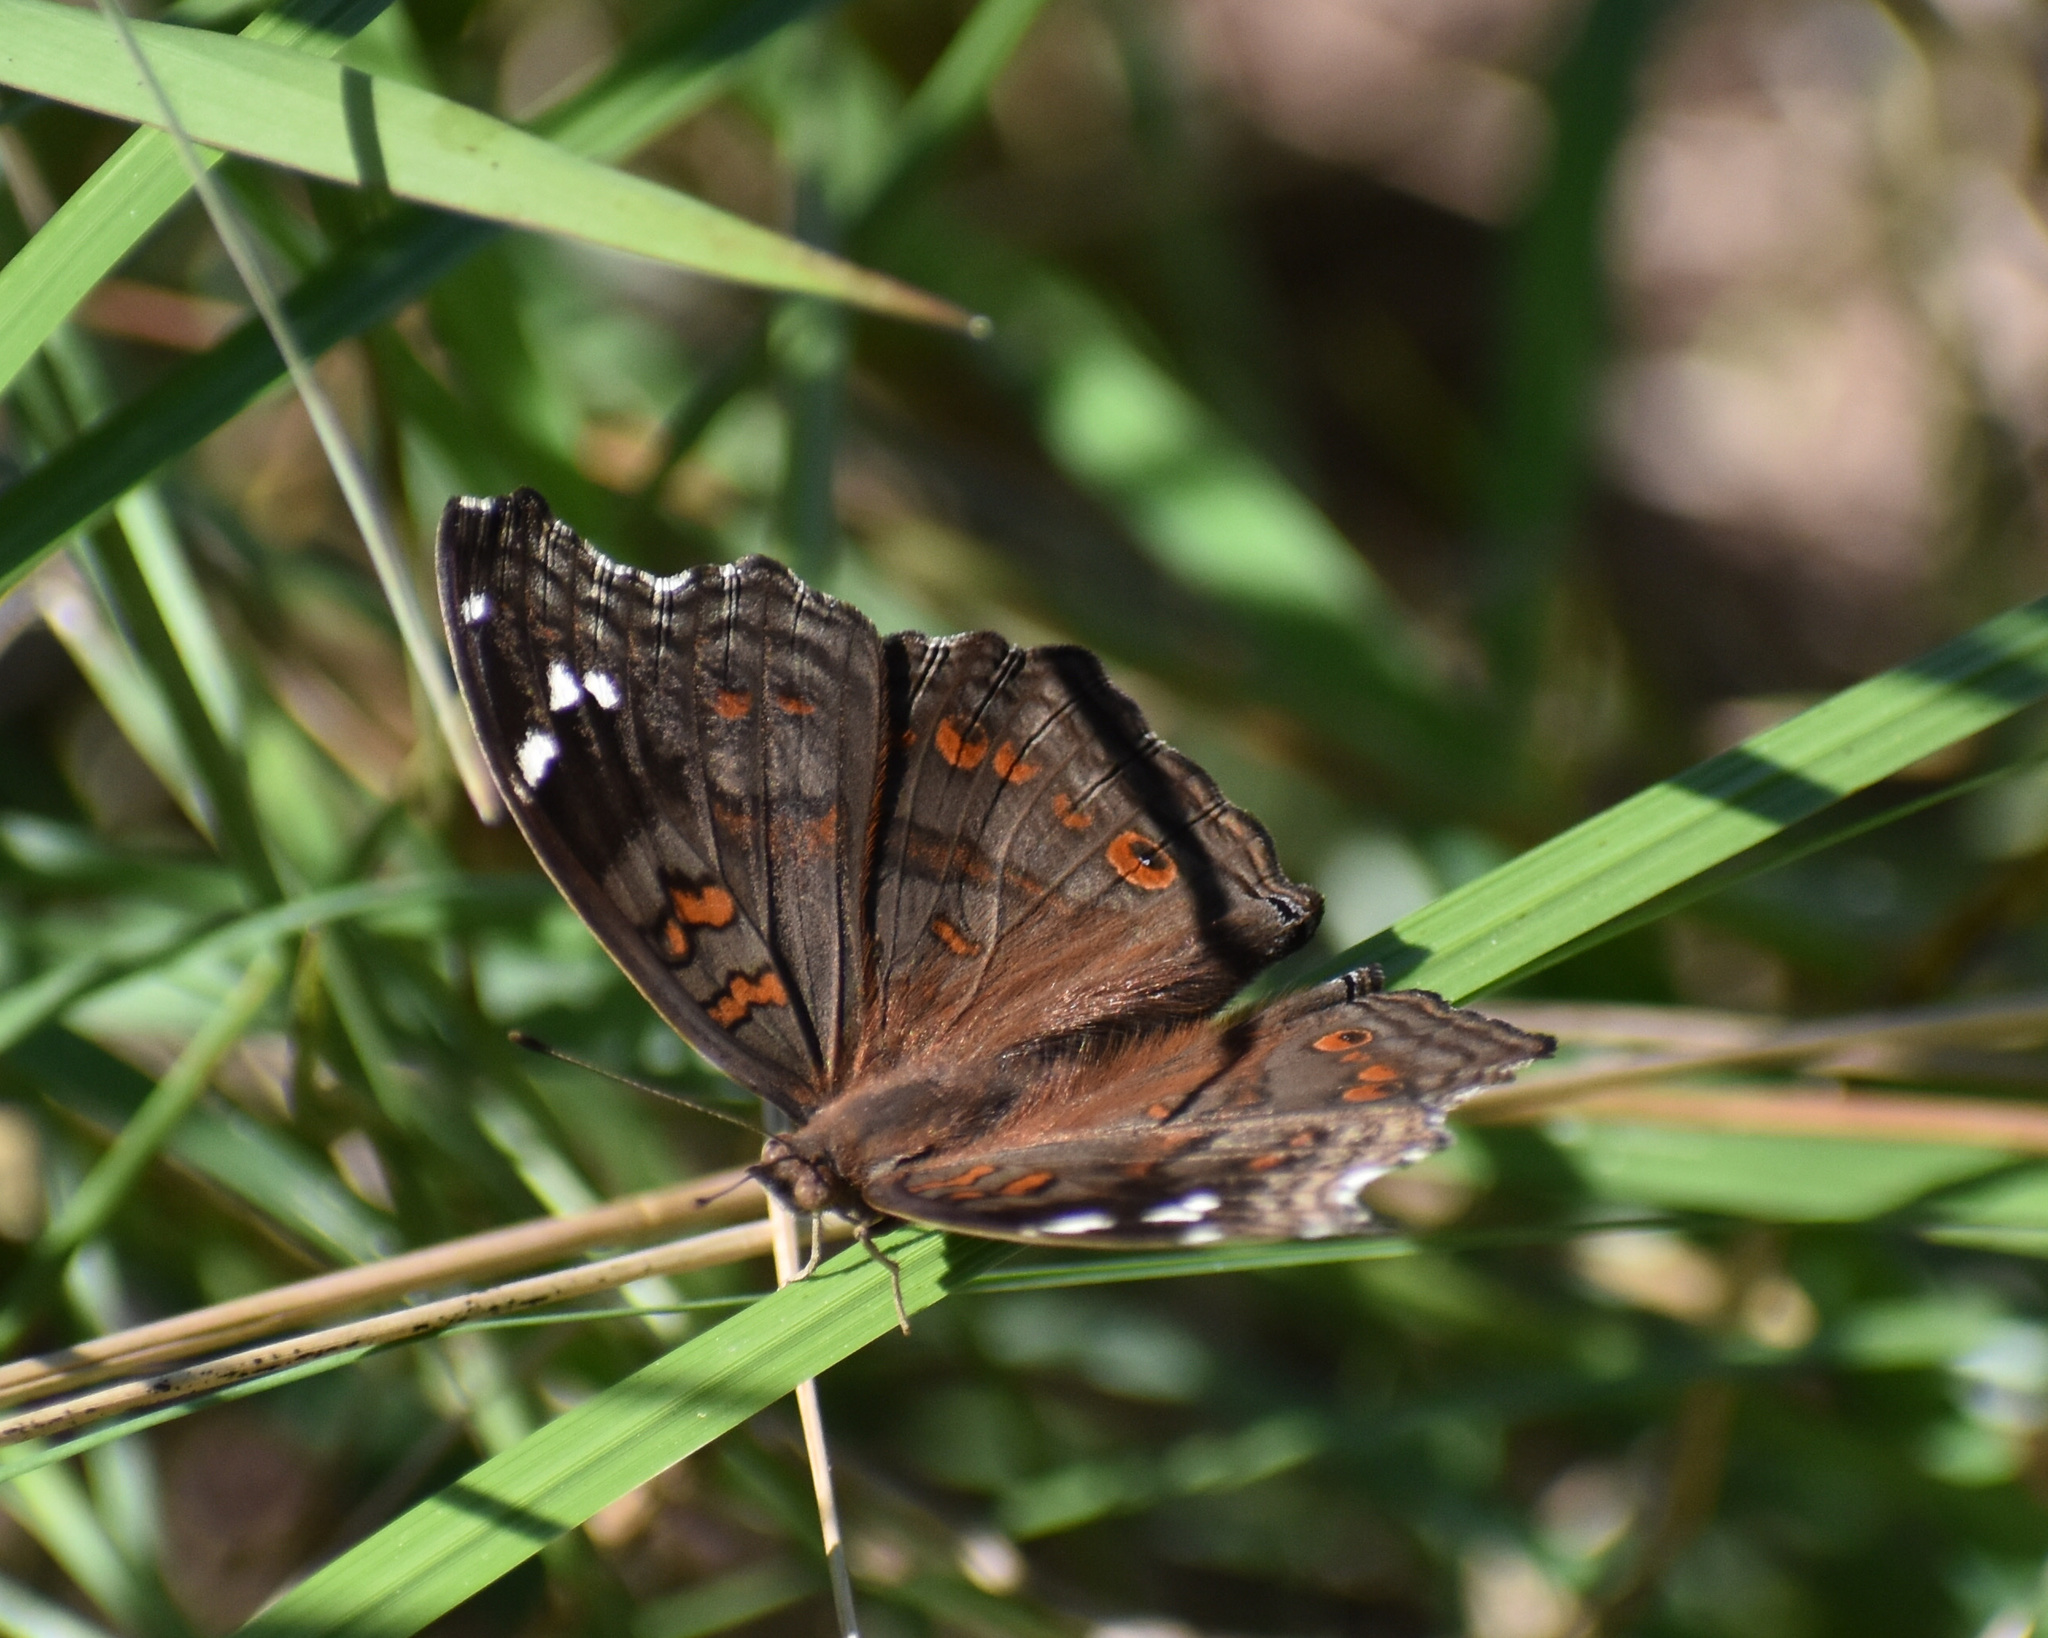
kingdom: Animalia
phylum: Arthropoda
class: Insecta
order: Lepidoptera
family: Nymphalidae
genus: Junonia
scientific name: Junonia natalica
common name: Brown pansy
